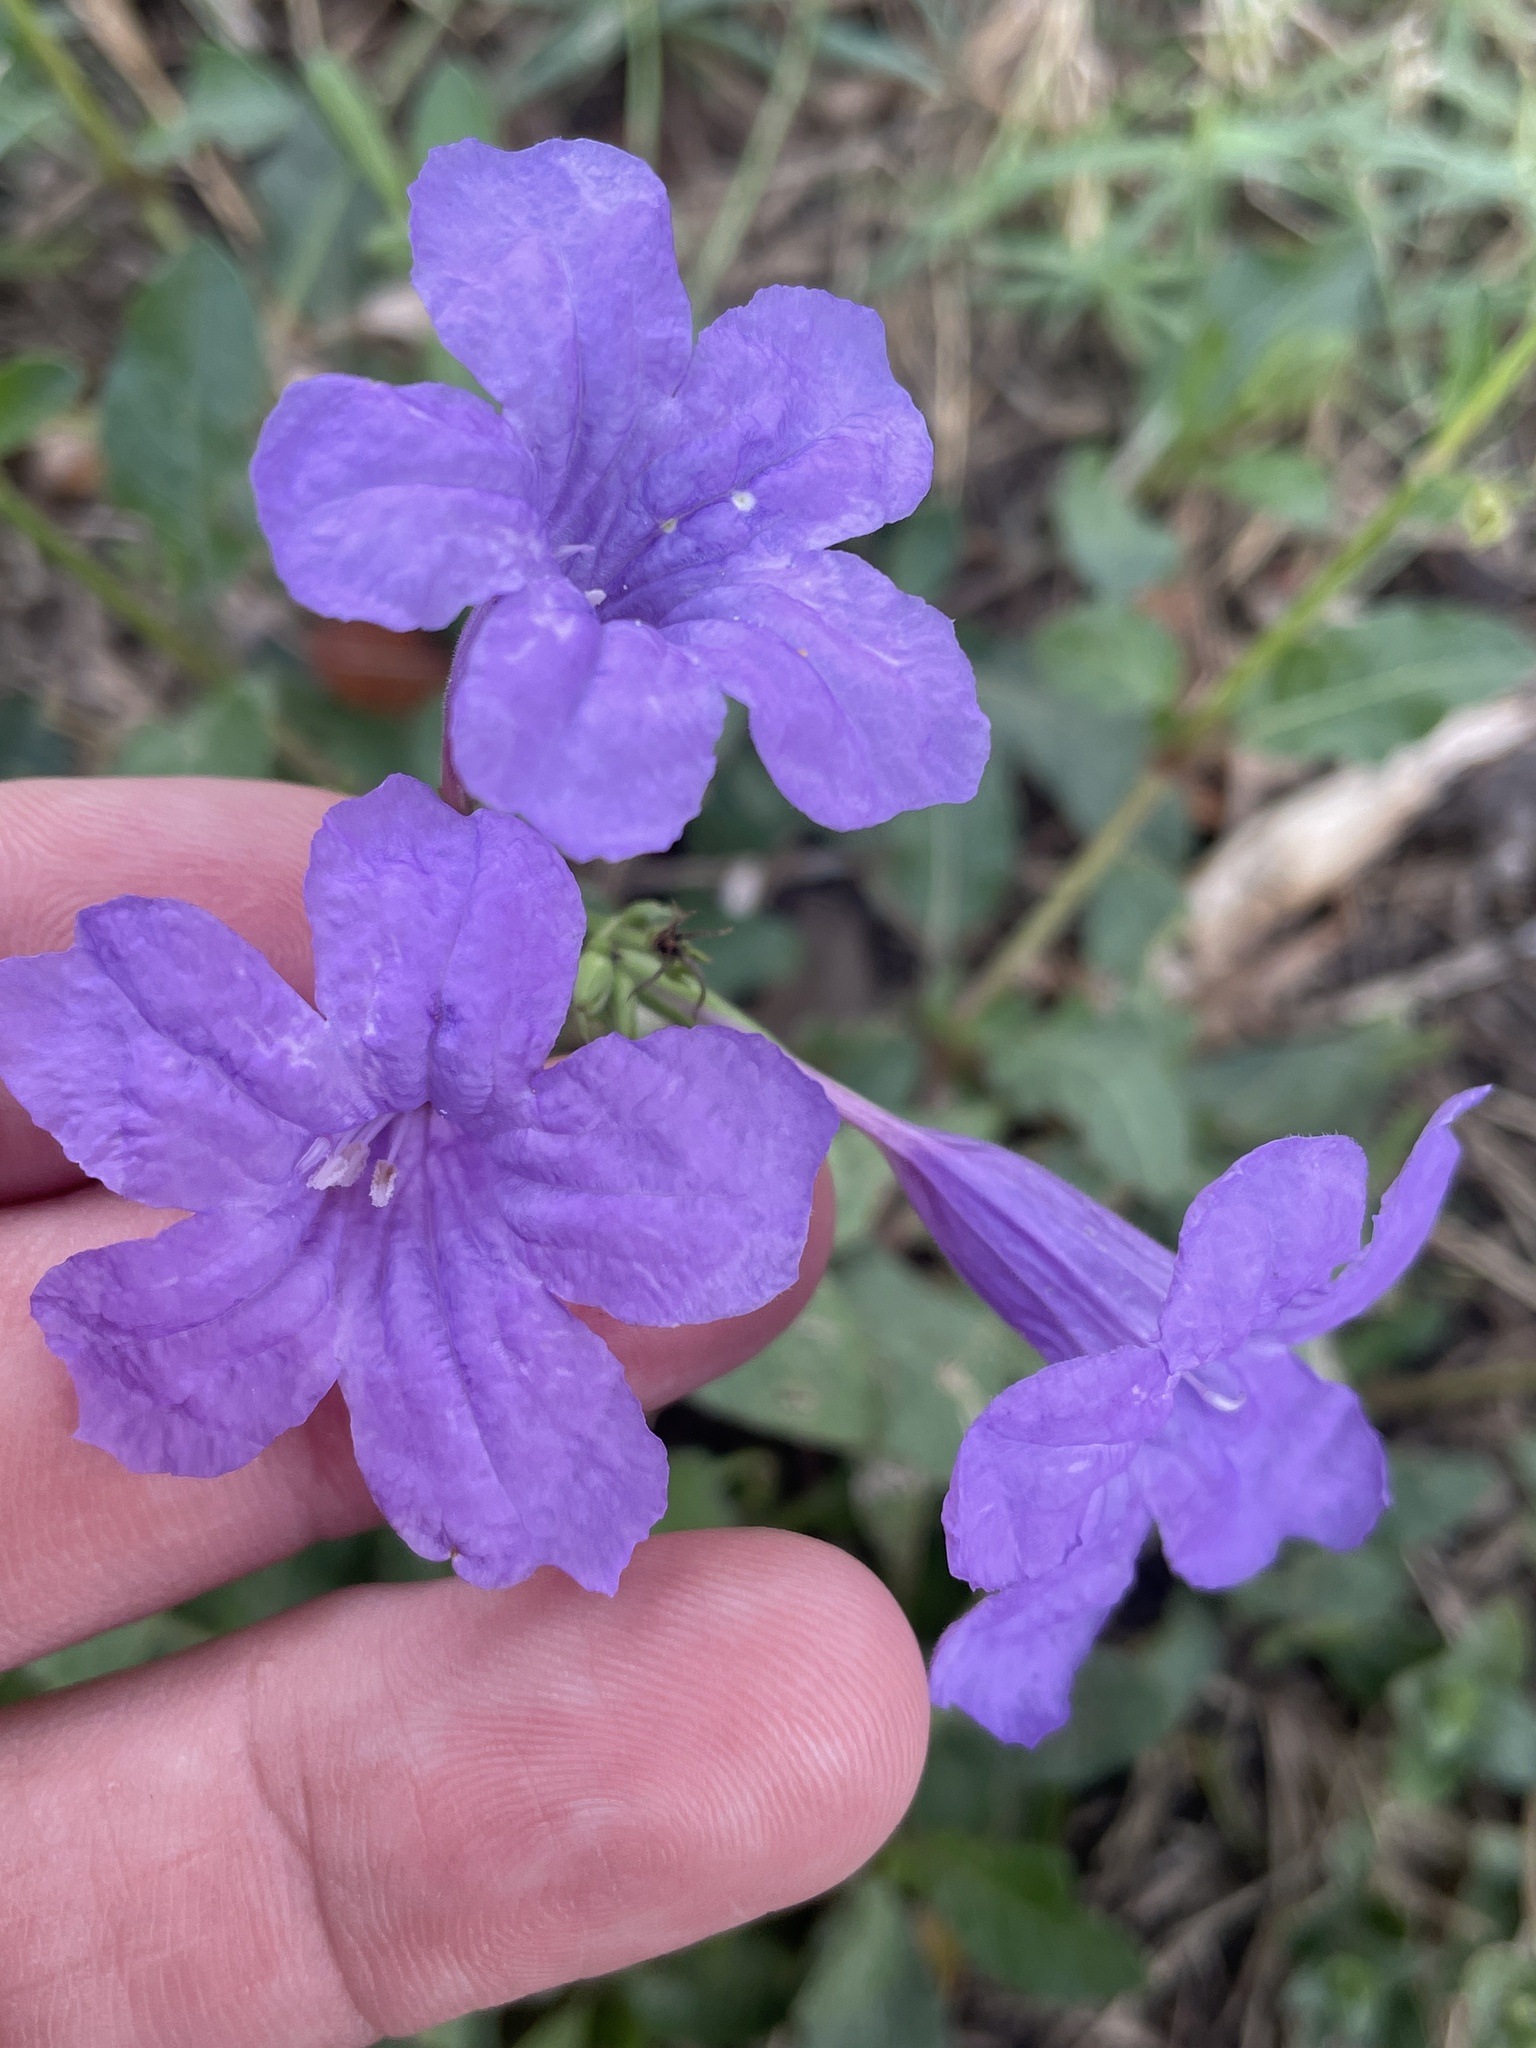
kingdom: Plantae
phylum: Tracheophyta
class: Magnoliopsida
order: Lamiales
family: Acanthaceae
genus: Ruellia
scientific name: Ruellia ciliatiflora
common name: Hairyflower wild petunia
